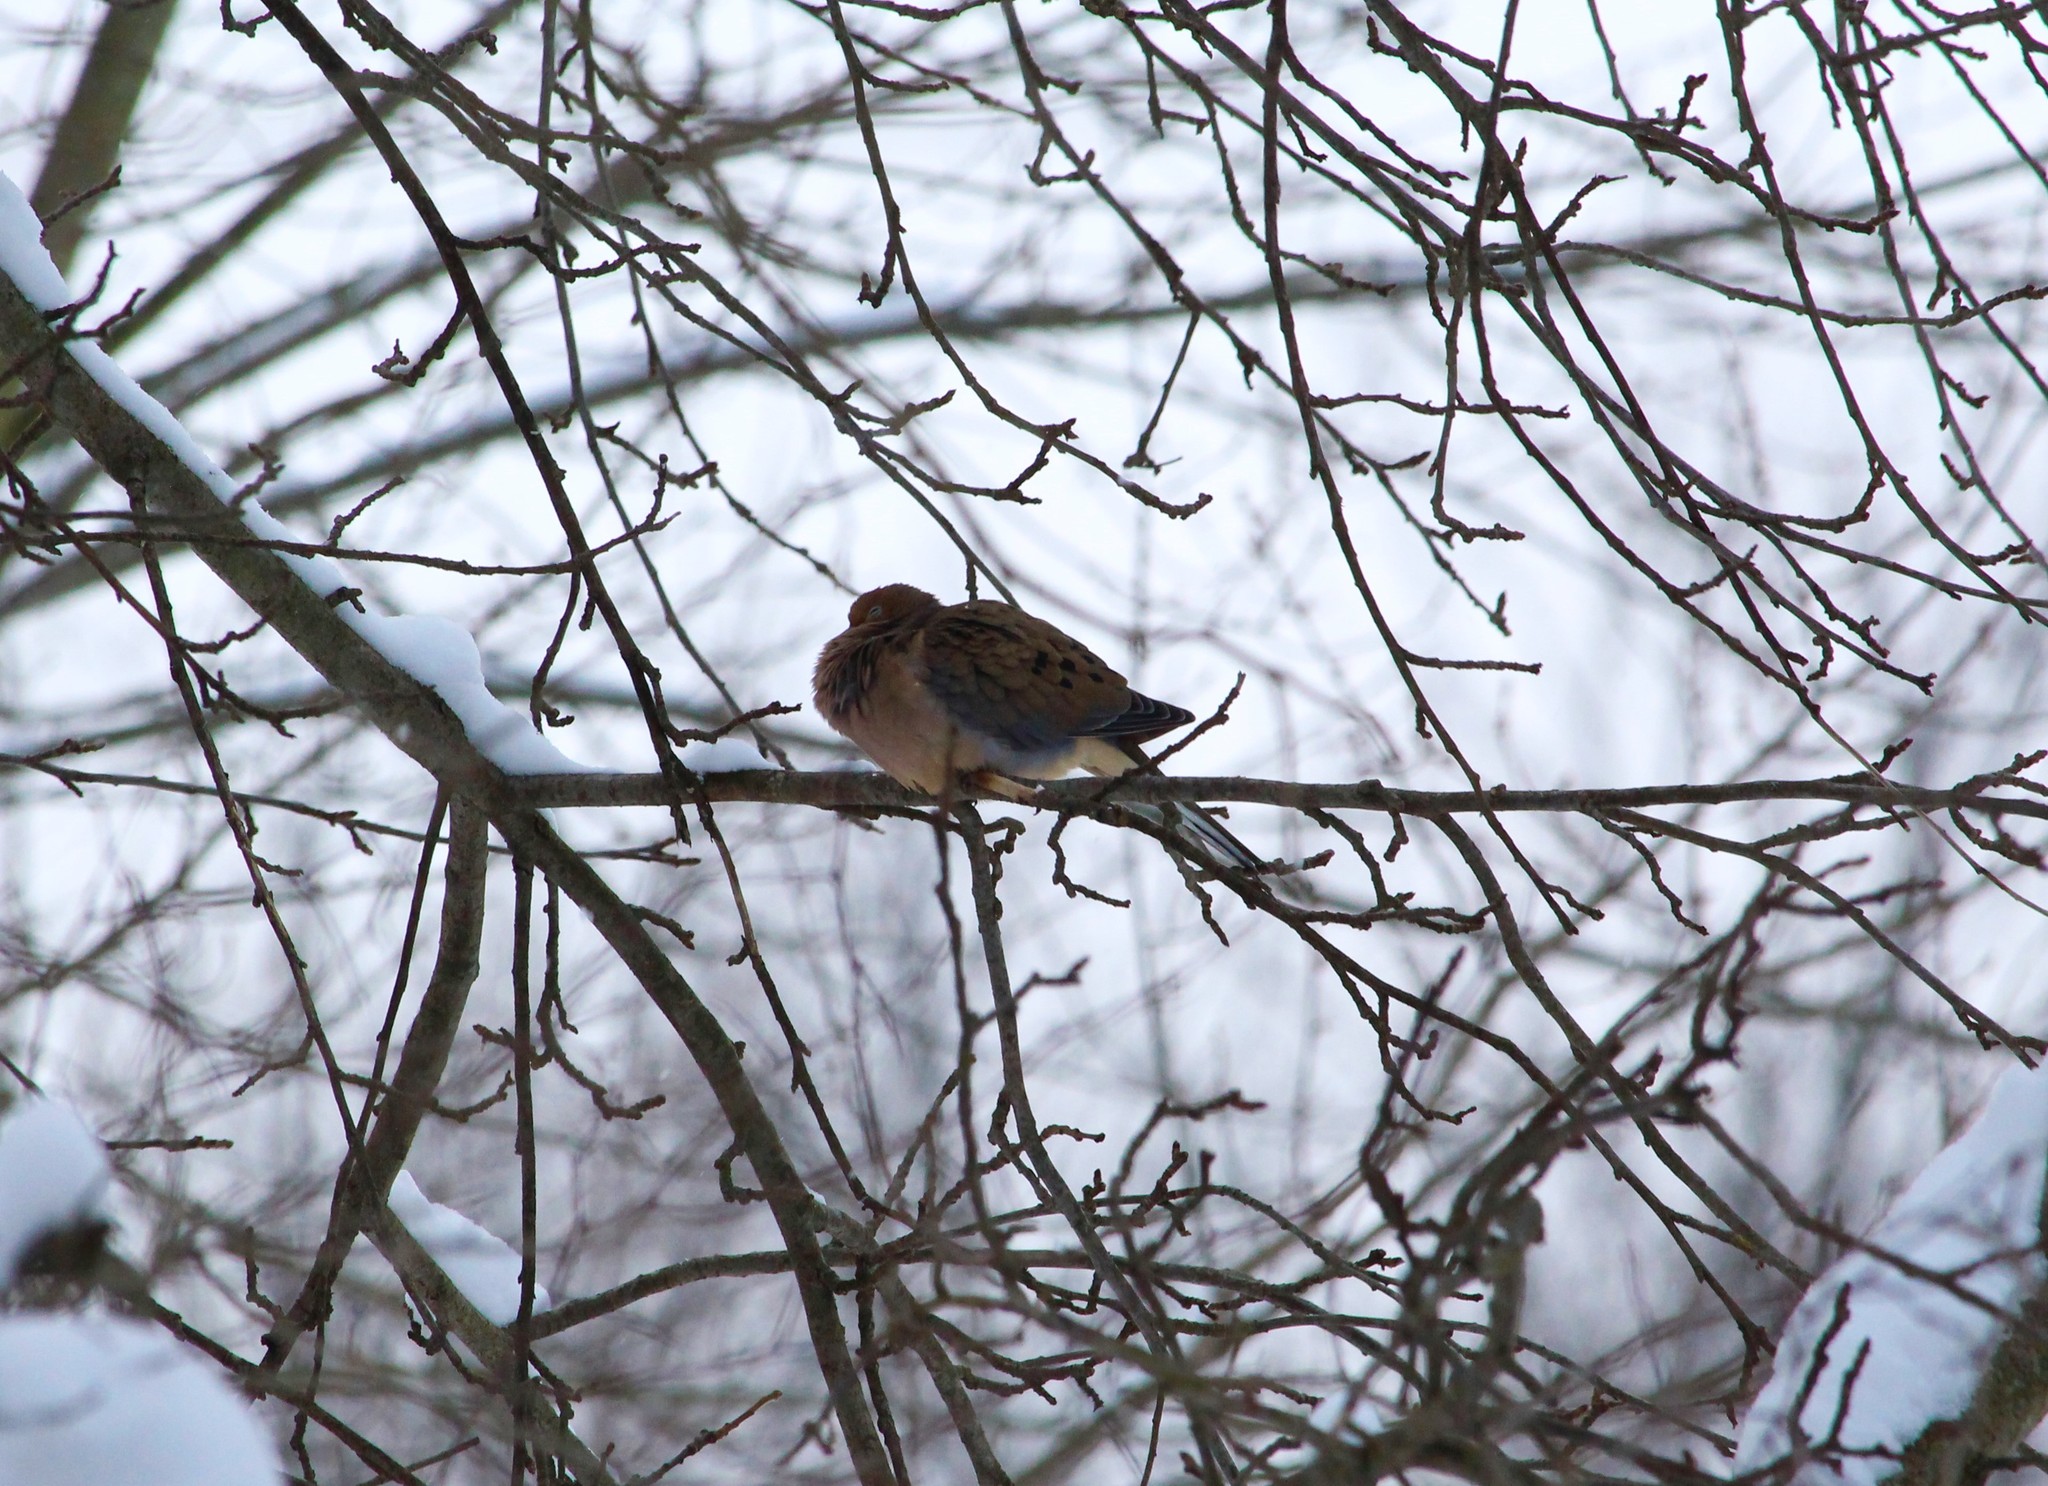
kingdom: Animalia
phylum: Chordata
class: Aves
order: Columbiformes
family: Columbidae
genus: Zenaida
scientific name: Zenaida macroura
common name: Mourning dove
